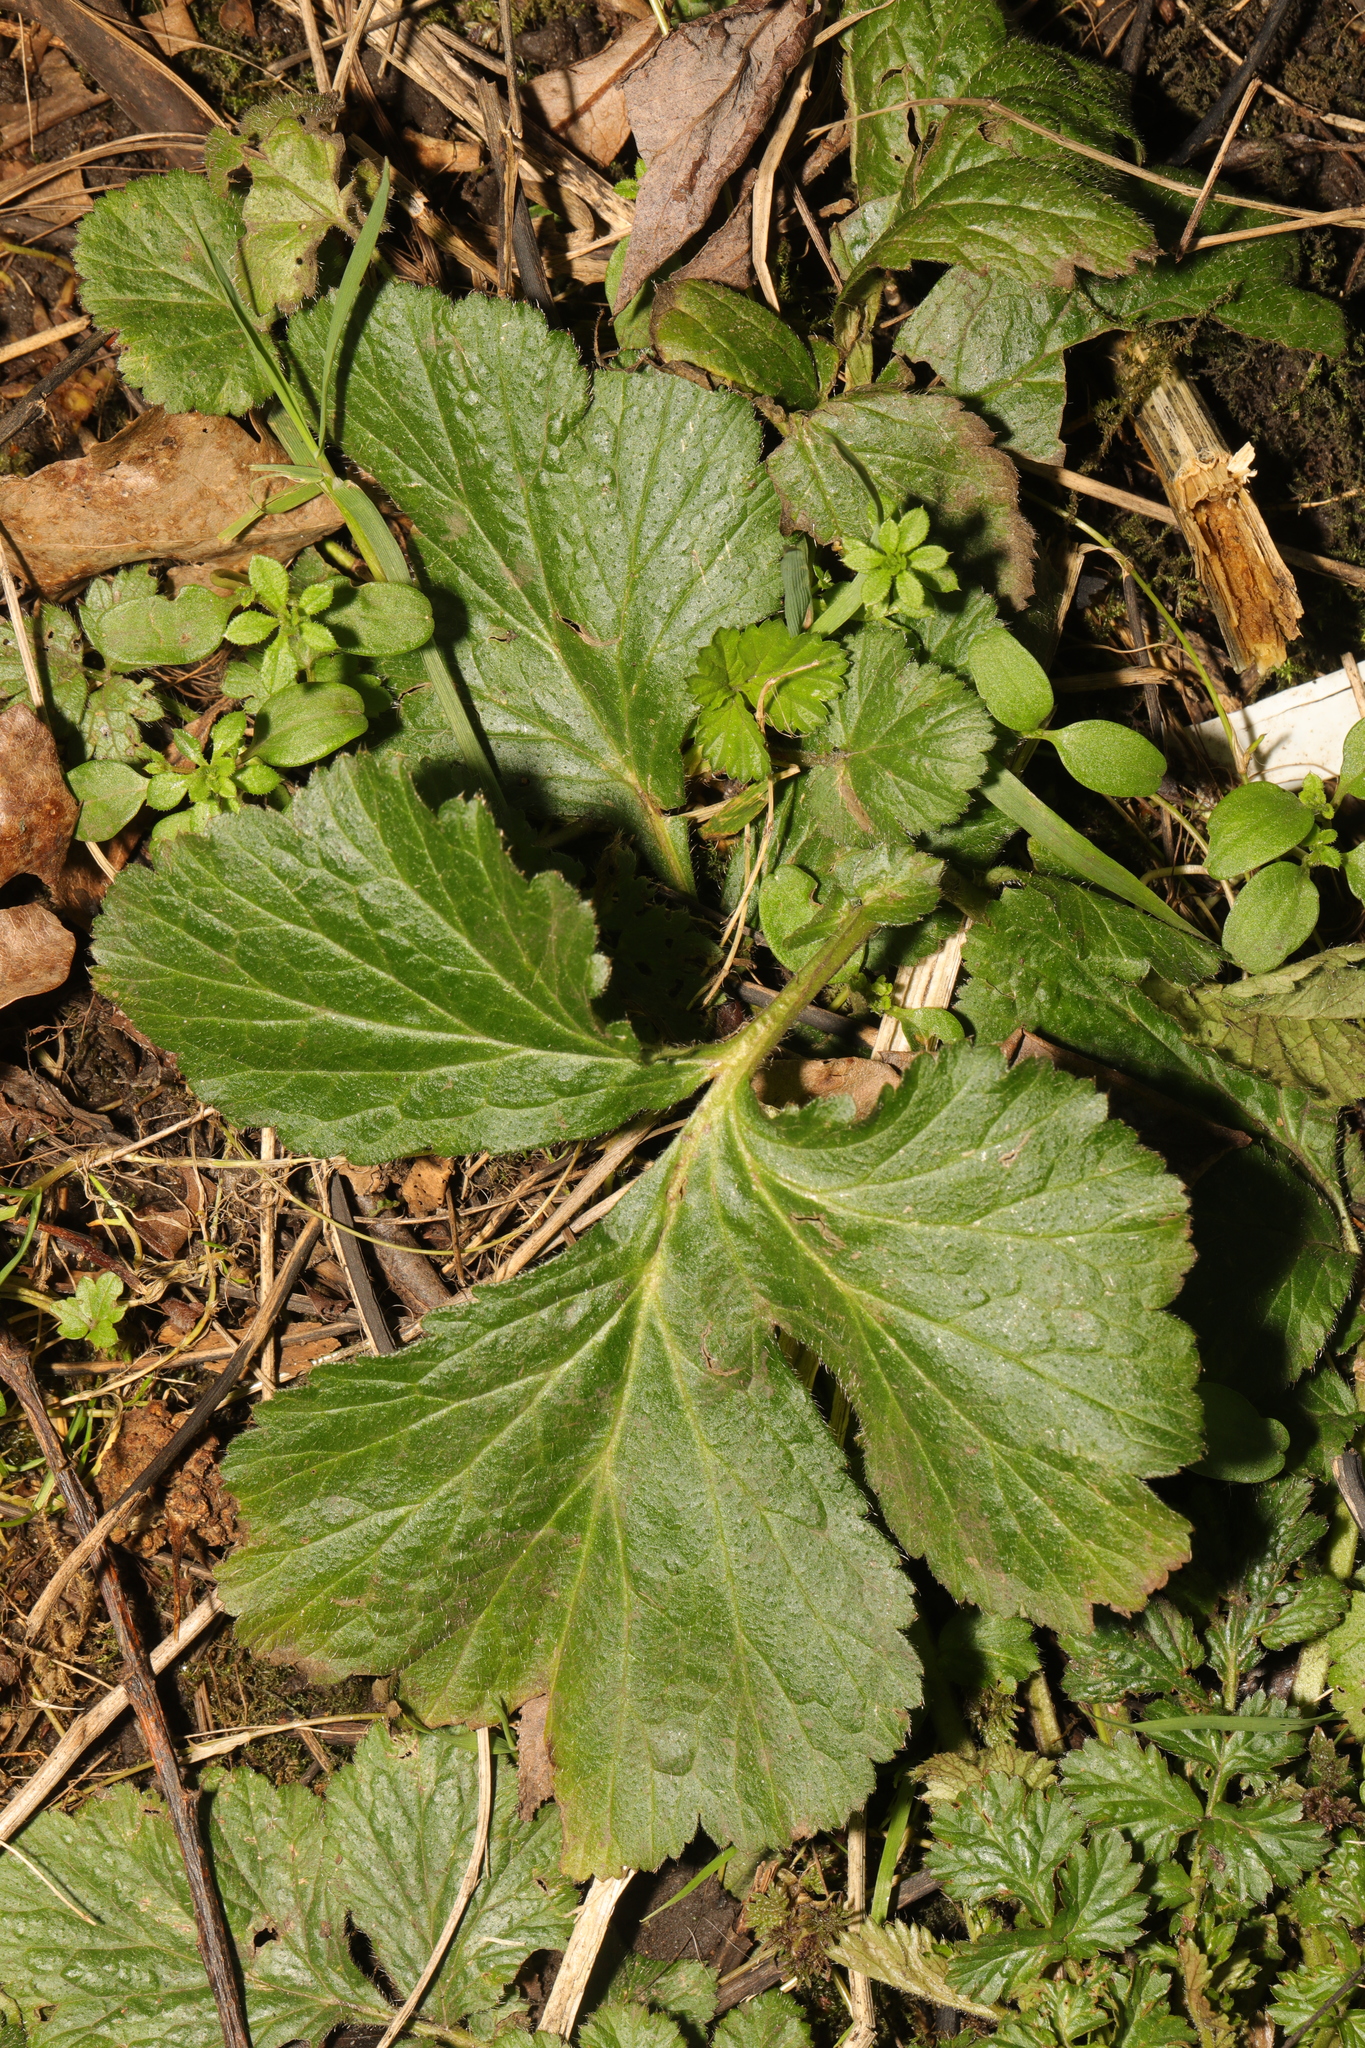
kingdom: Plantae
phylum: Tracheophyta
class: Magnoliopsida
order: Rosales
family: Rosaceae
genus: Geum
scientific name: Geum urbanum
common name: Wood avens
